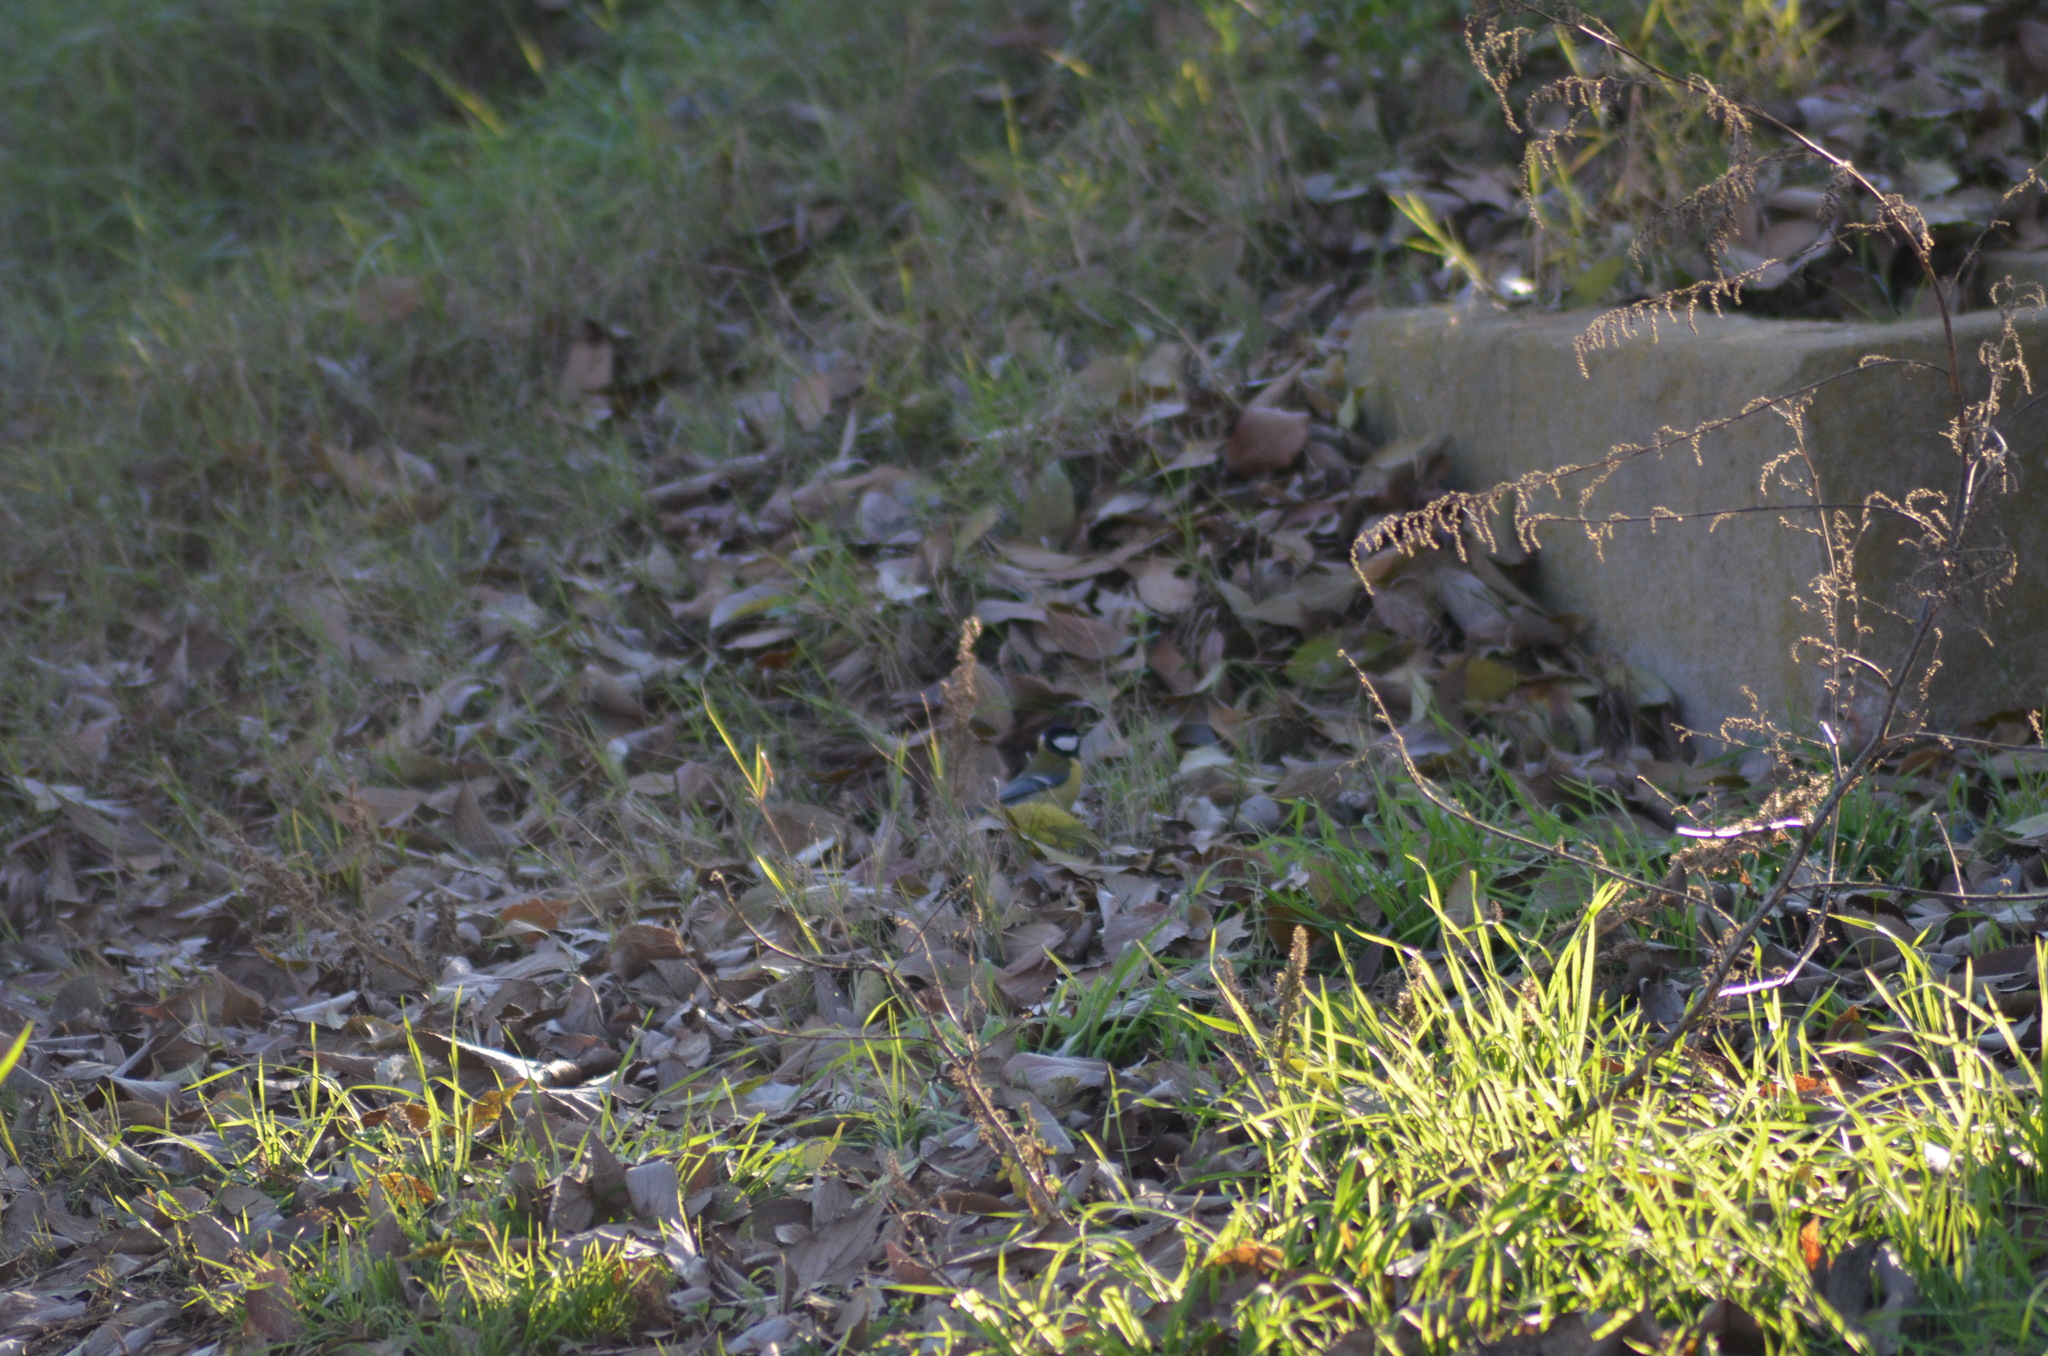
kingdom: Animalia
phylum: Chordata
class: Aves
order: Passeriformes
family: Paridae
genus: Parus
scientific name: Parus major
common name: Great tit
